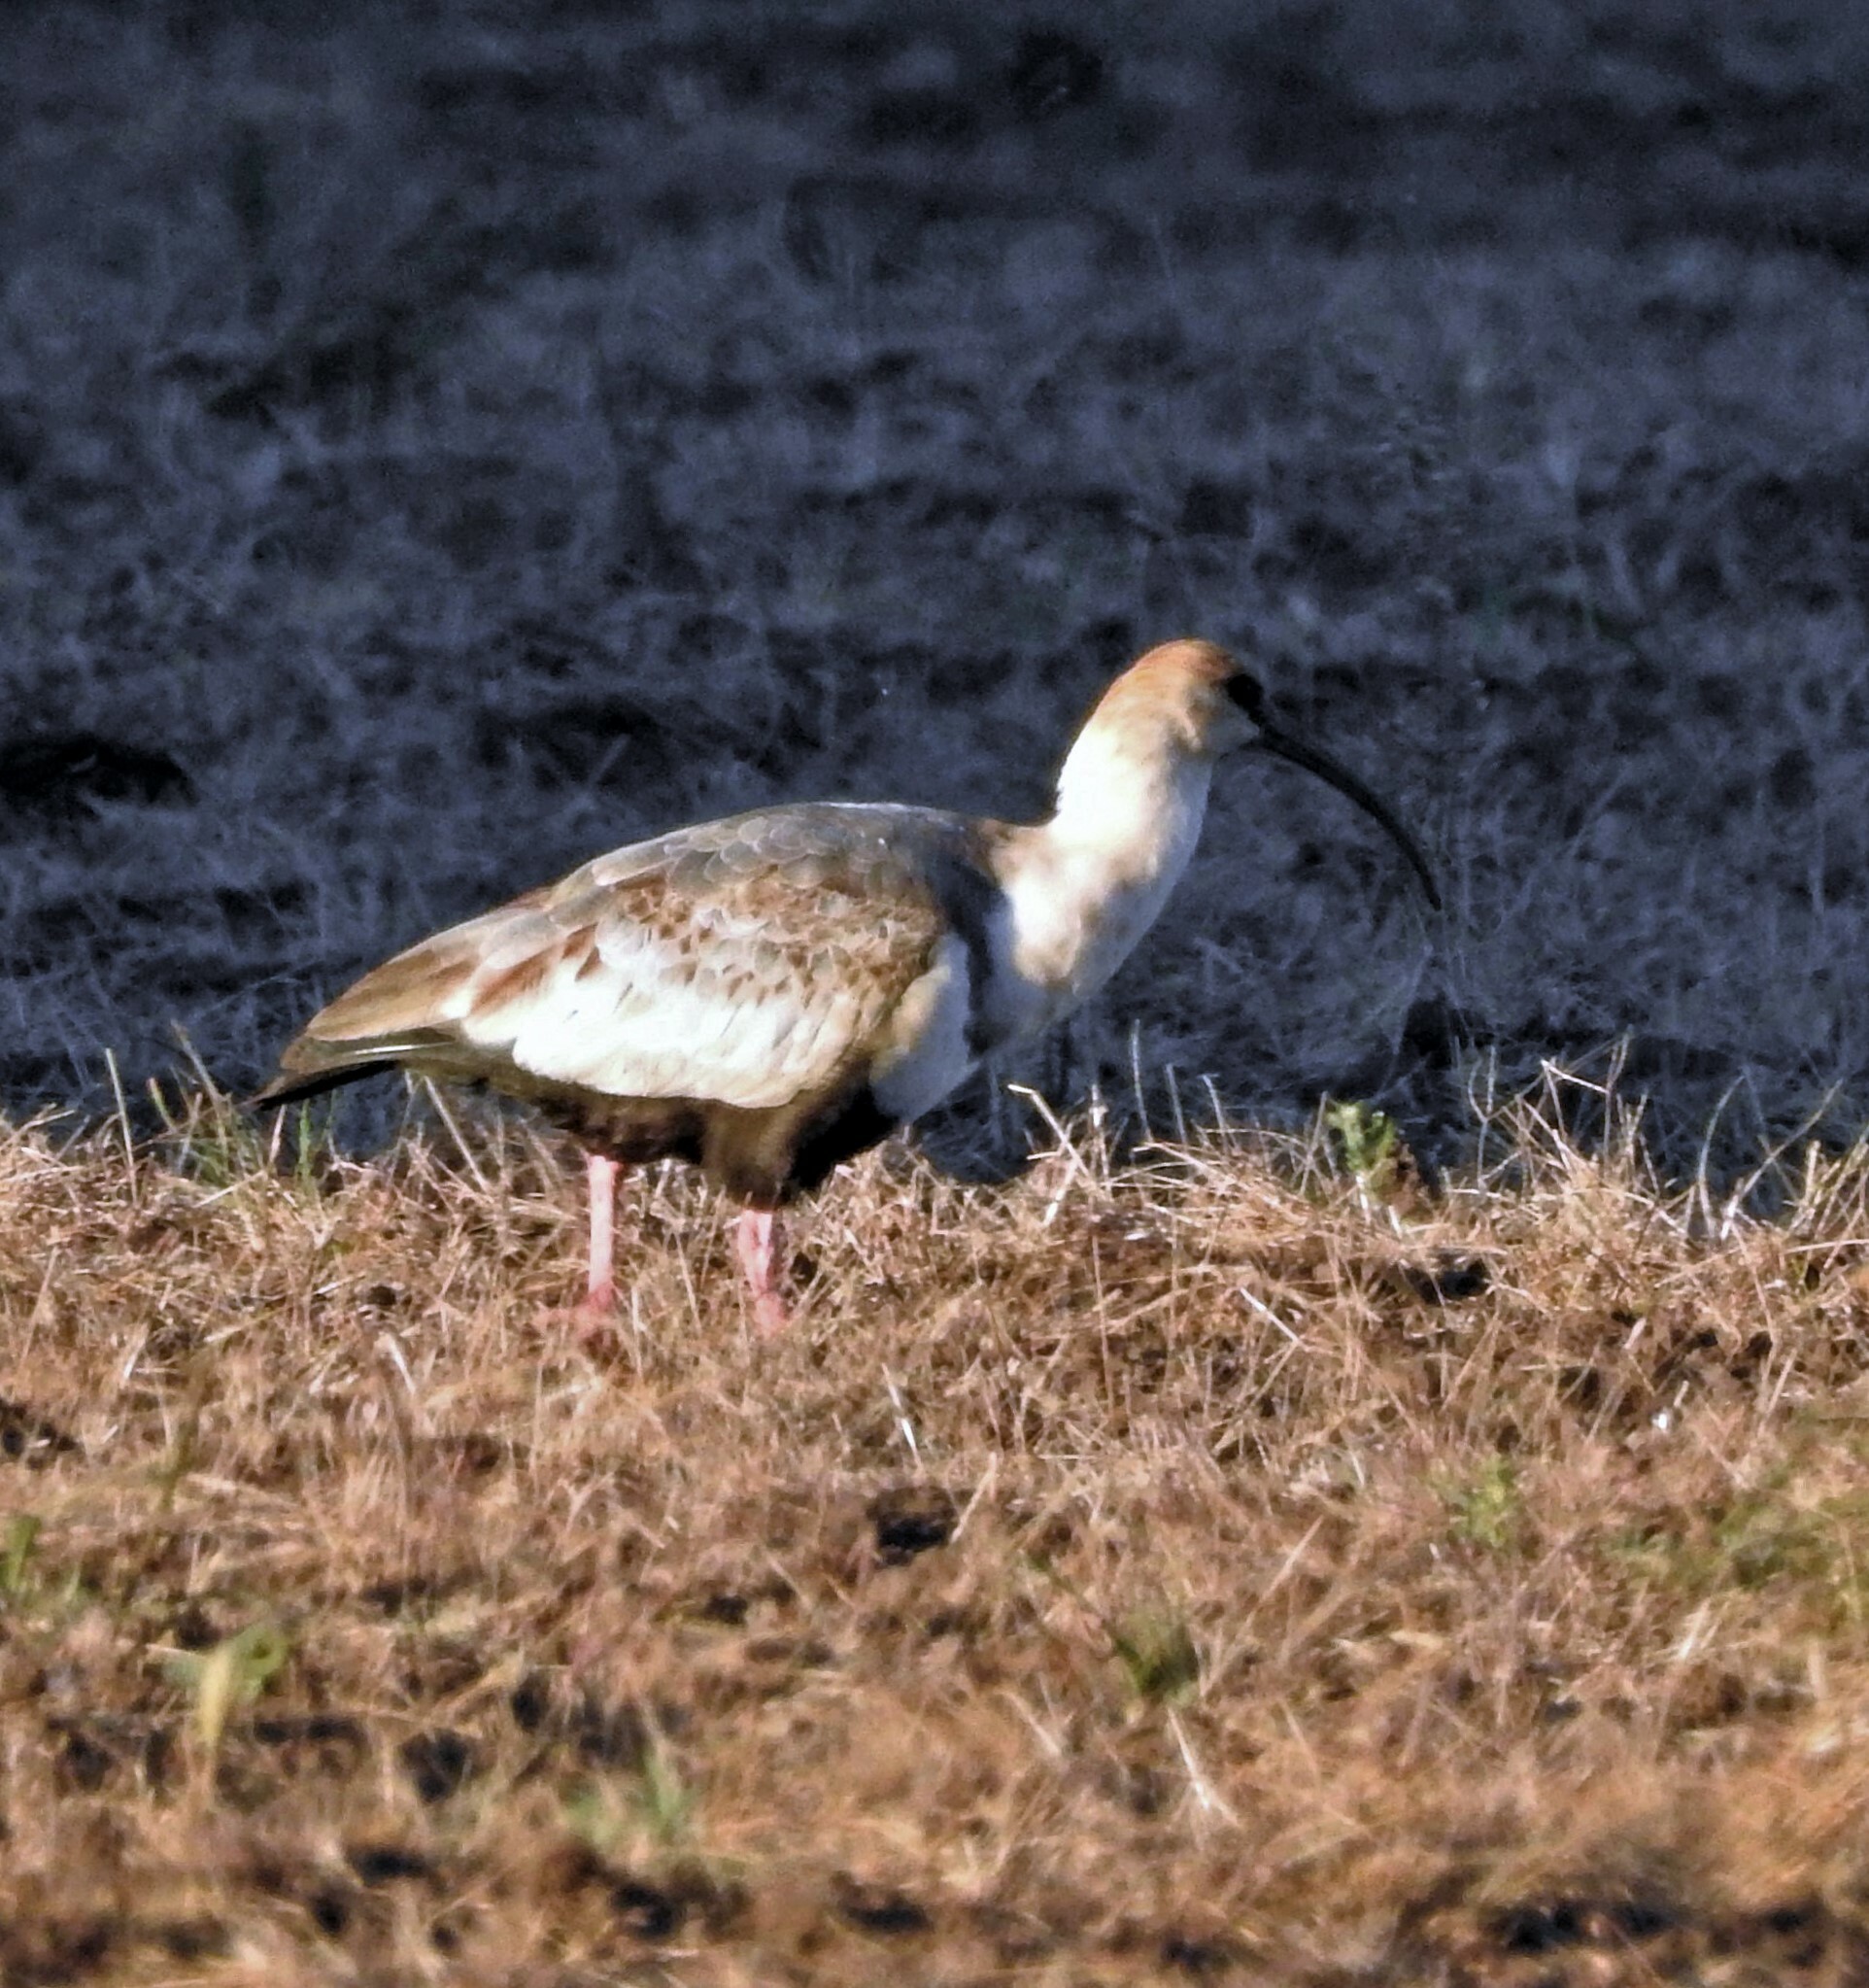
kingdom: Animalia
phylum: Chordata
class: Aves
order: Pelecaniformes
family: Threskiornithidae
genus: Theristicus
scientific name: Theristicus melanopis
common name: Black-faced ibis
